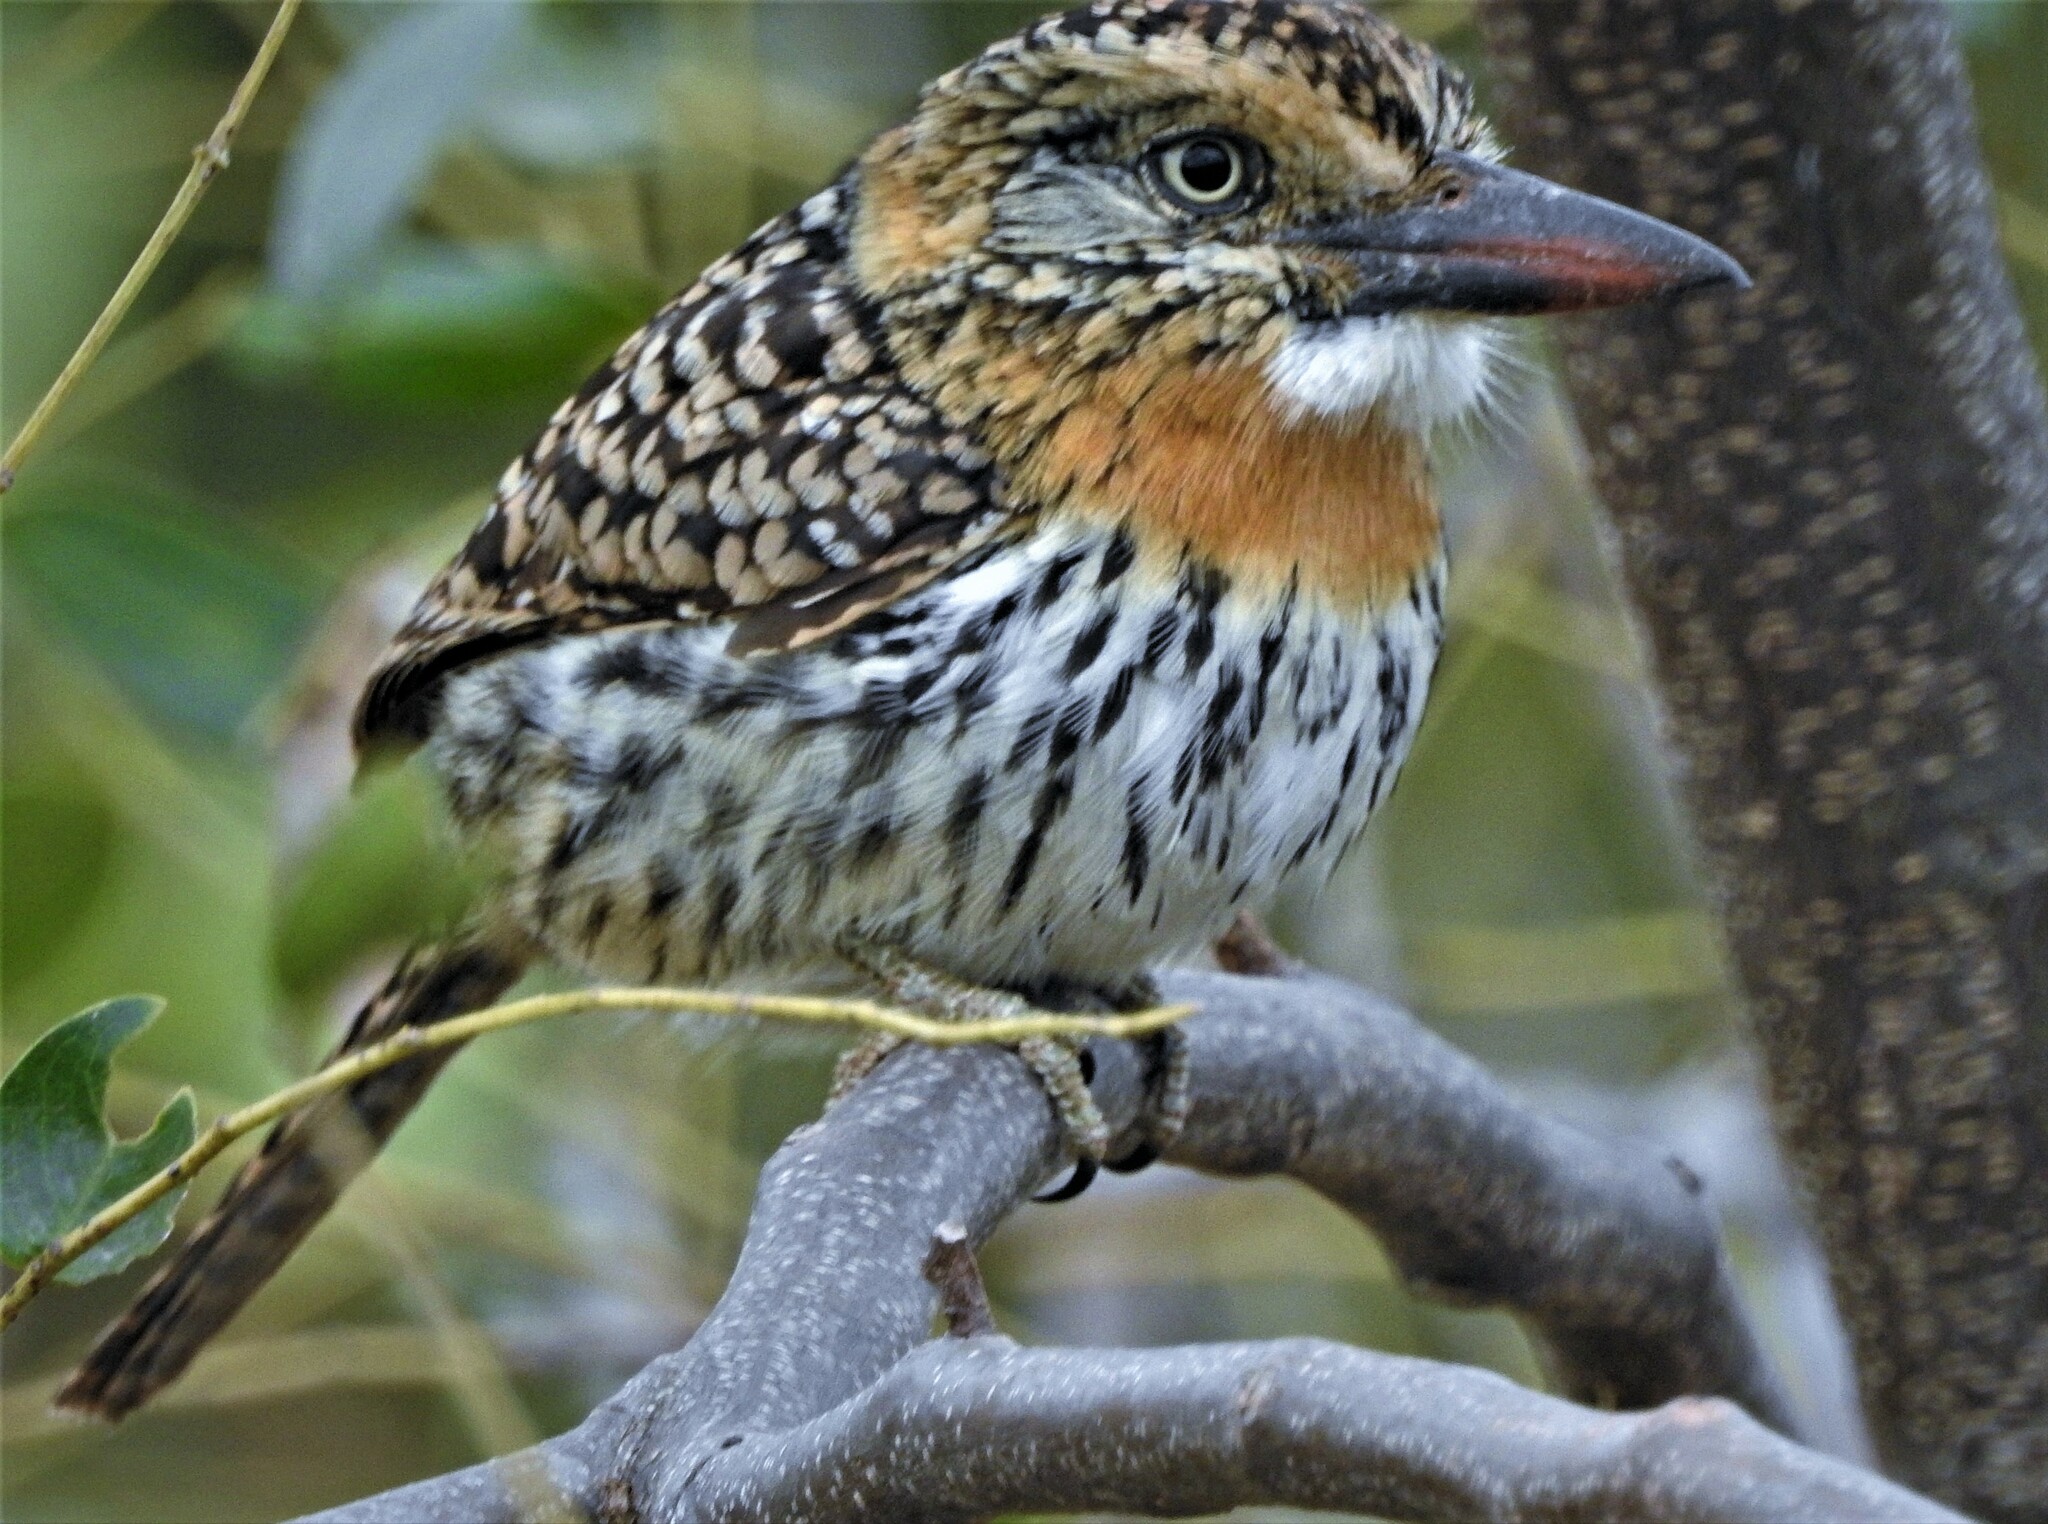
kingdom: Animalia
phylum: Chordata
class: Aves
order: Piciformes
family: Bucconidae
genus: Nystalus
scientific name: Nystalus maculatus
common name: Caatinga puffbird
